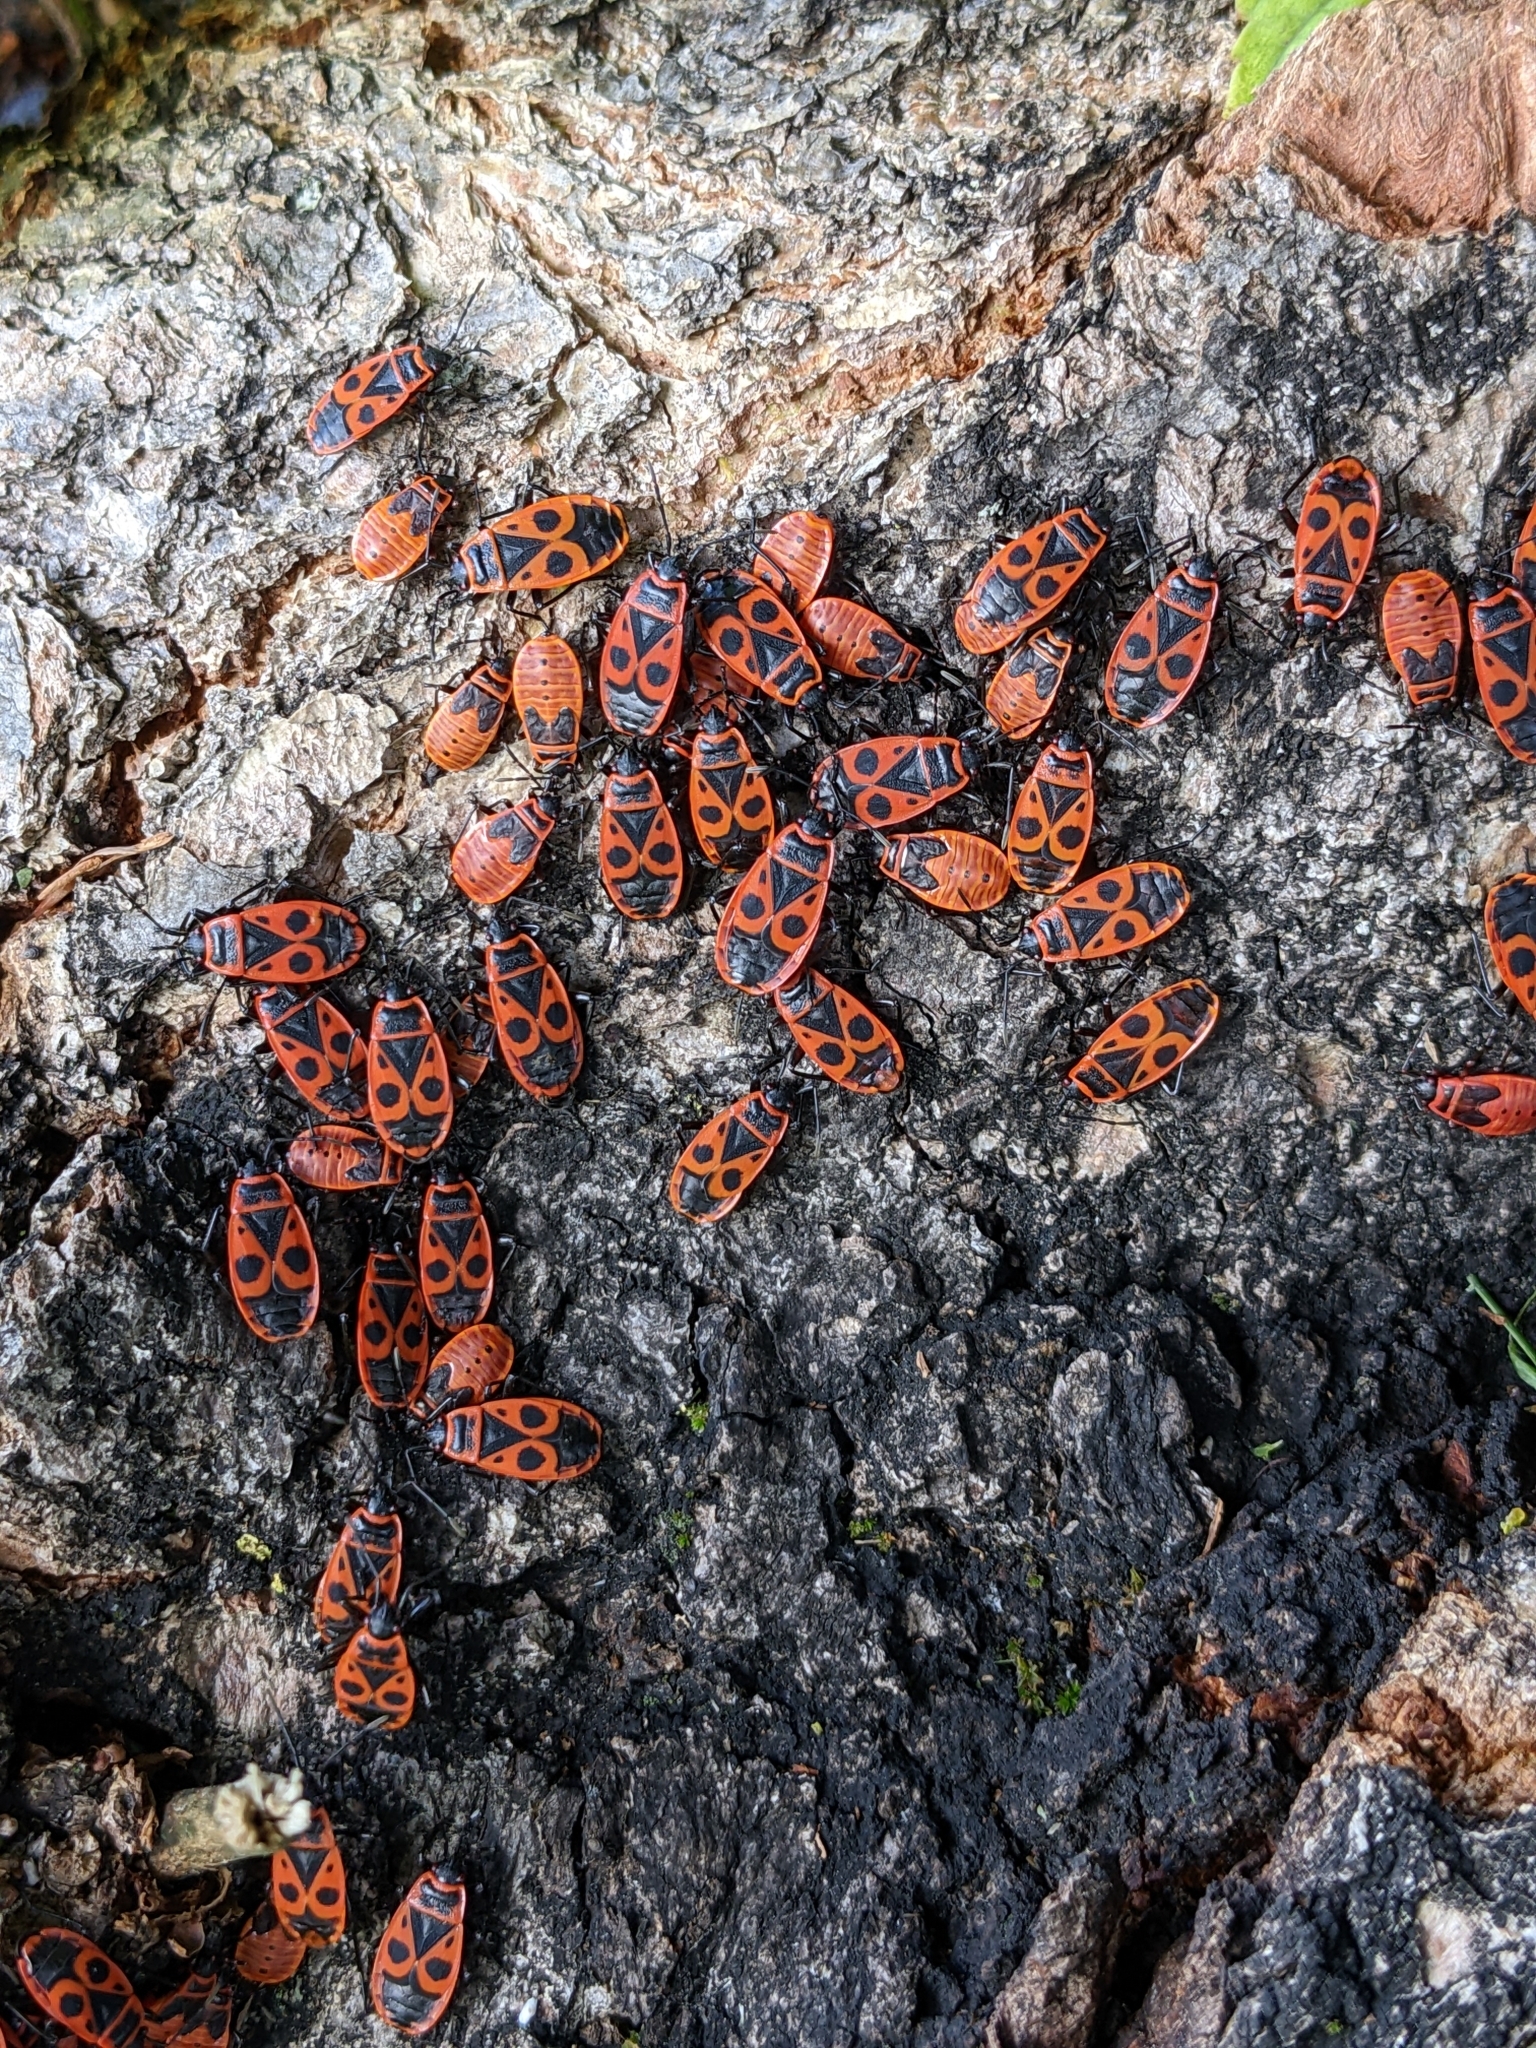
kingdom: Animalia
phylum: Arthropoda
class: Insecta
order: Hemiptera
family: Pyrrhocoridae
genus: Pyrrhocoris
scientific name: Pyrrhocoris apterus
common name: Firebug
